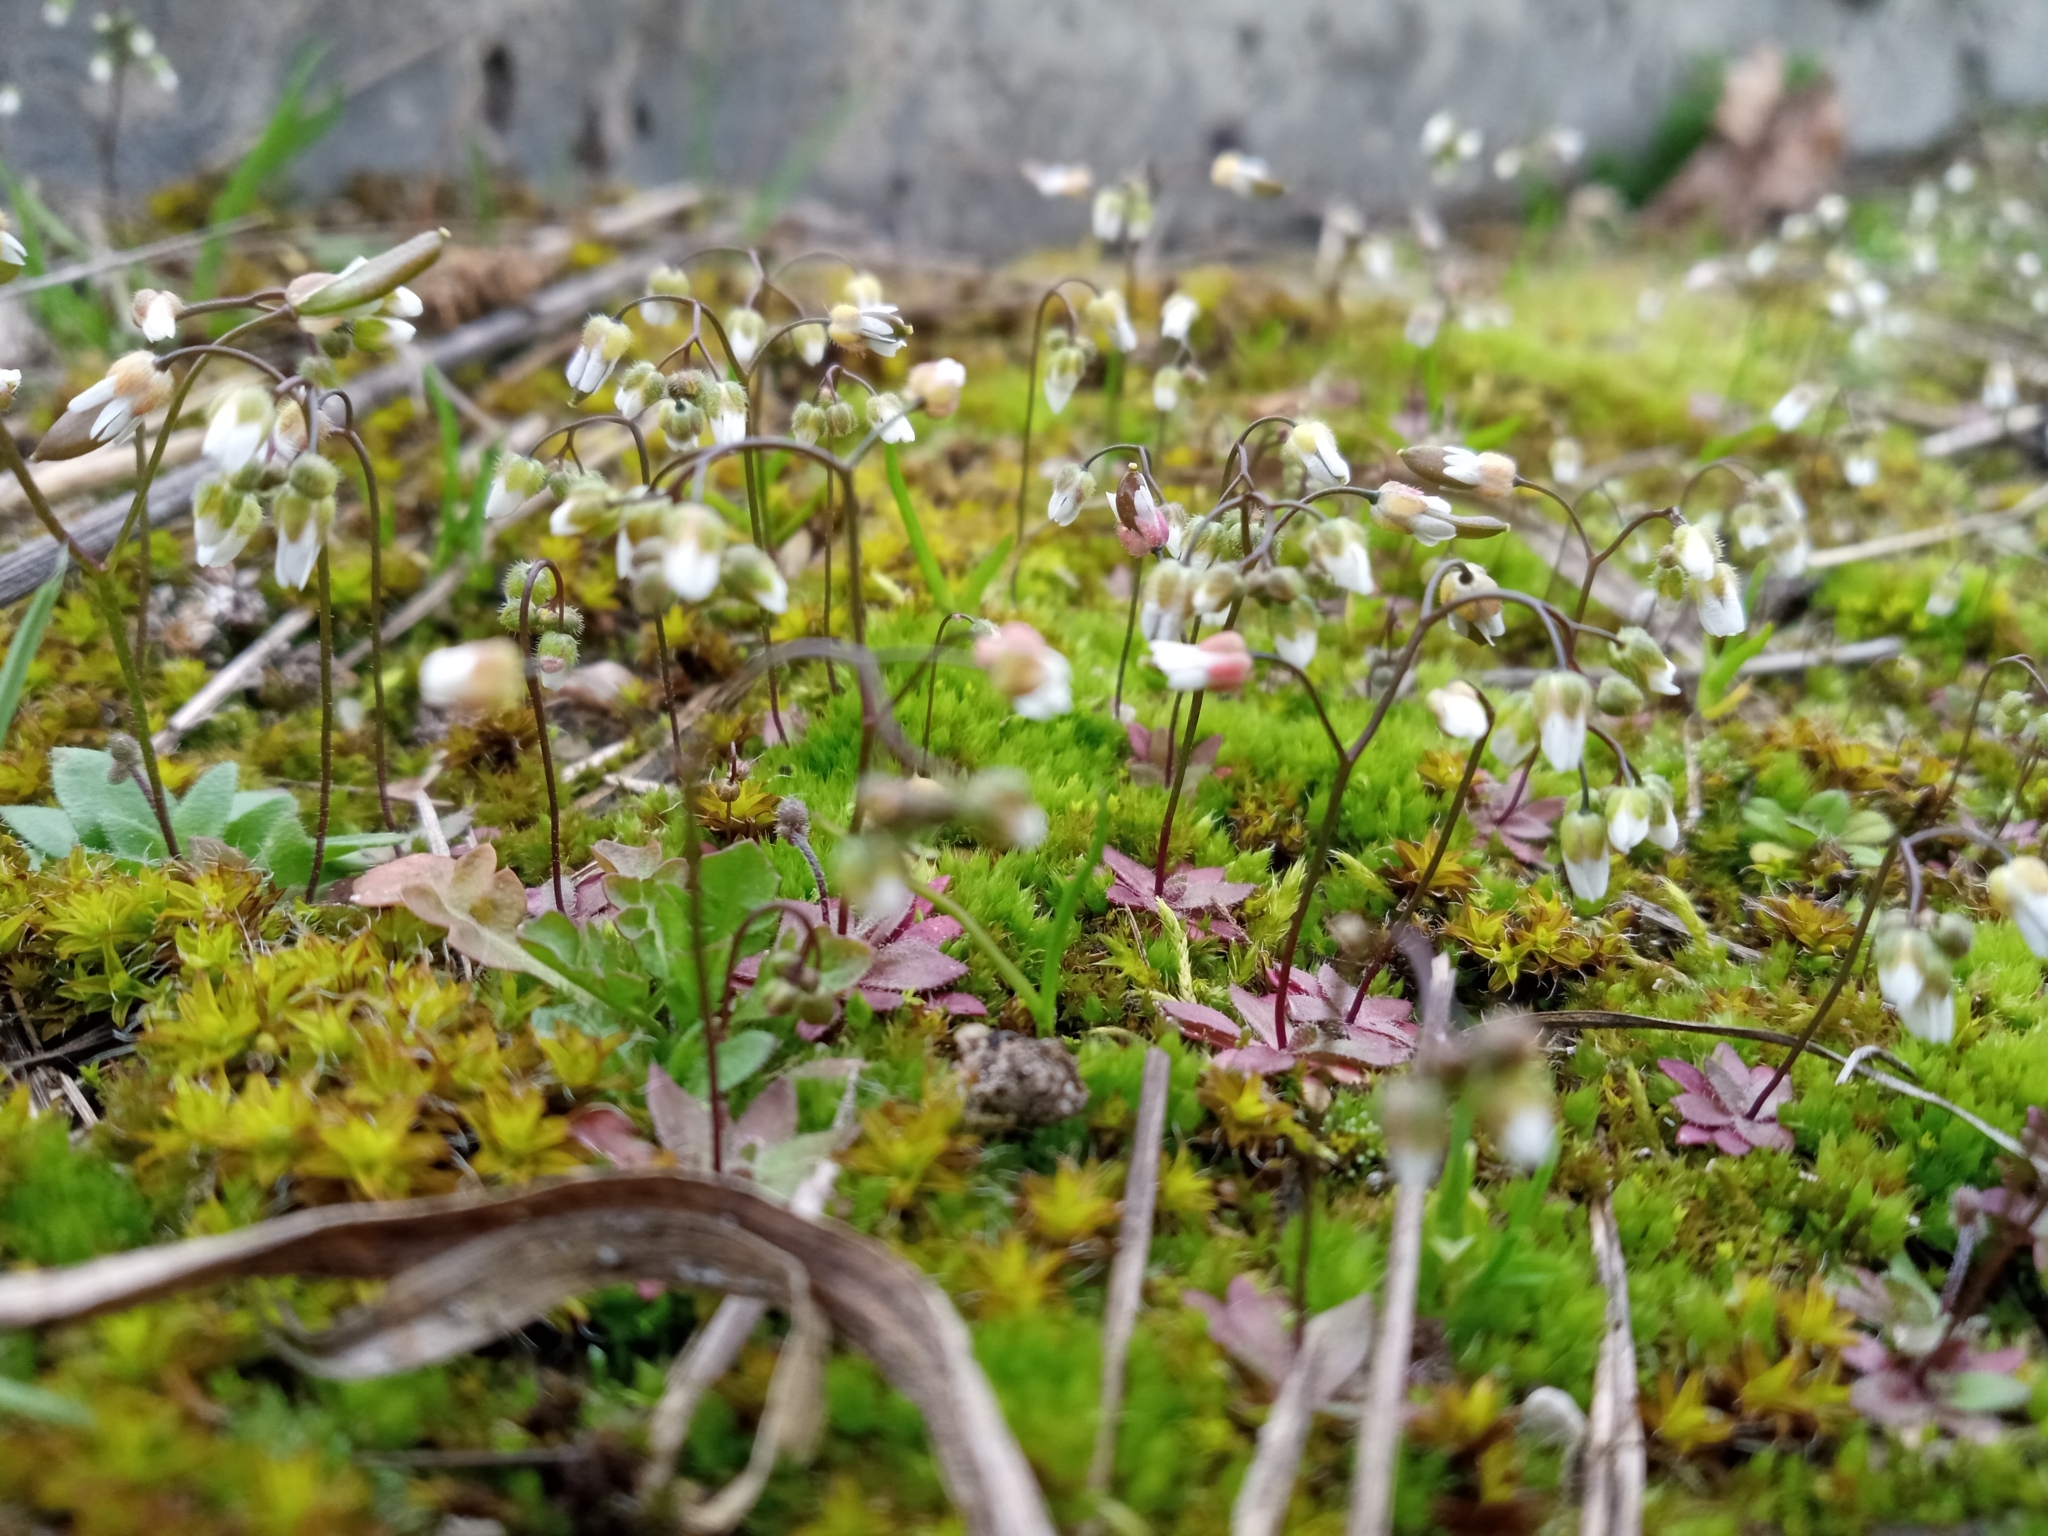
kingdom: Plantae
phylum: Tracheophyta
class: Magnoliopsida
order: Brassicales
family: Brassicaceae
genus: Draba
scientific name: Draba verna
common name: Spring draba
